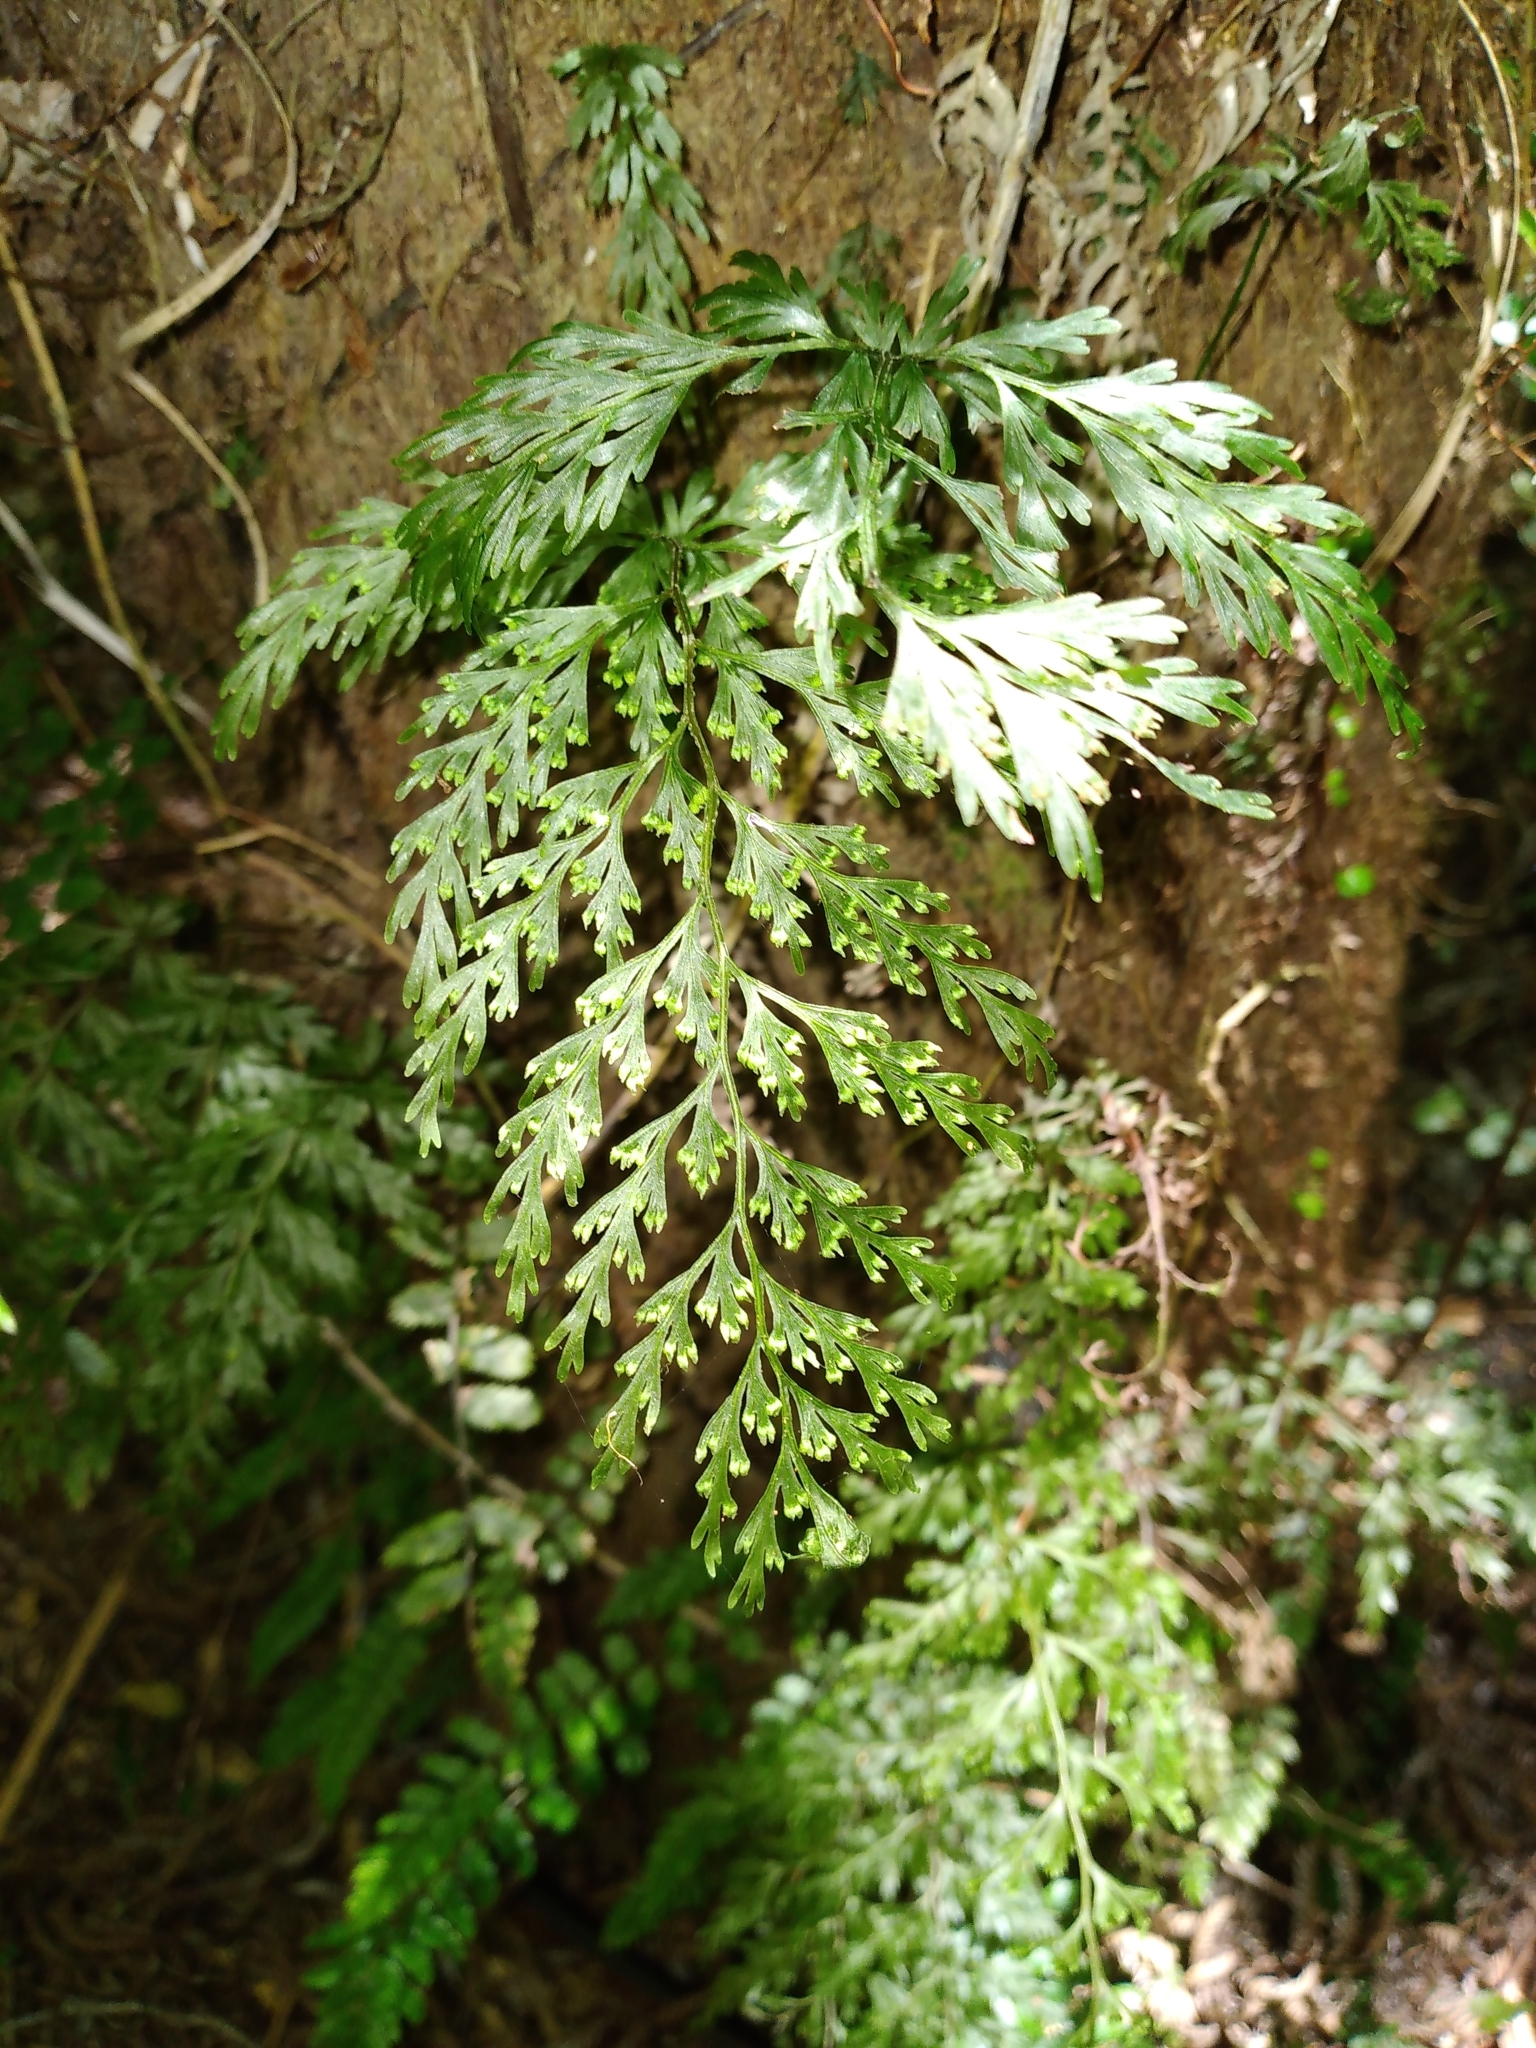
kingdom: Plantae
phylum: Tracheophyta
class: Polypodiopsida
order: Hymenophyllales
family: Hymenophyllaceae
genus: Hymenophyllum
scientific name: Hymenophyllum demissum
